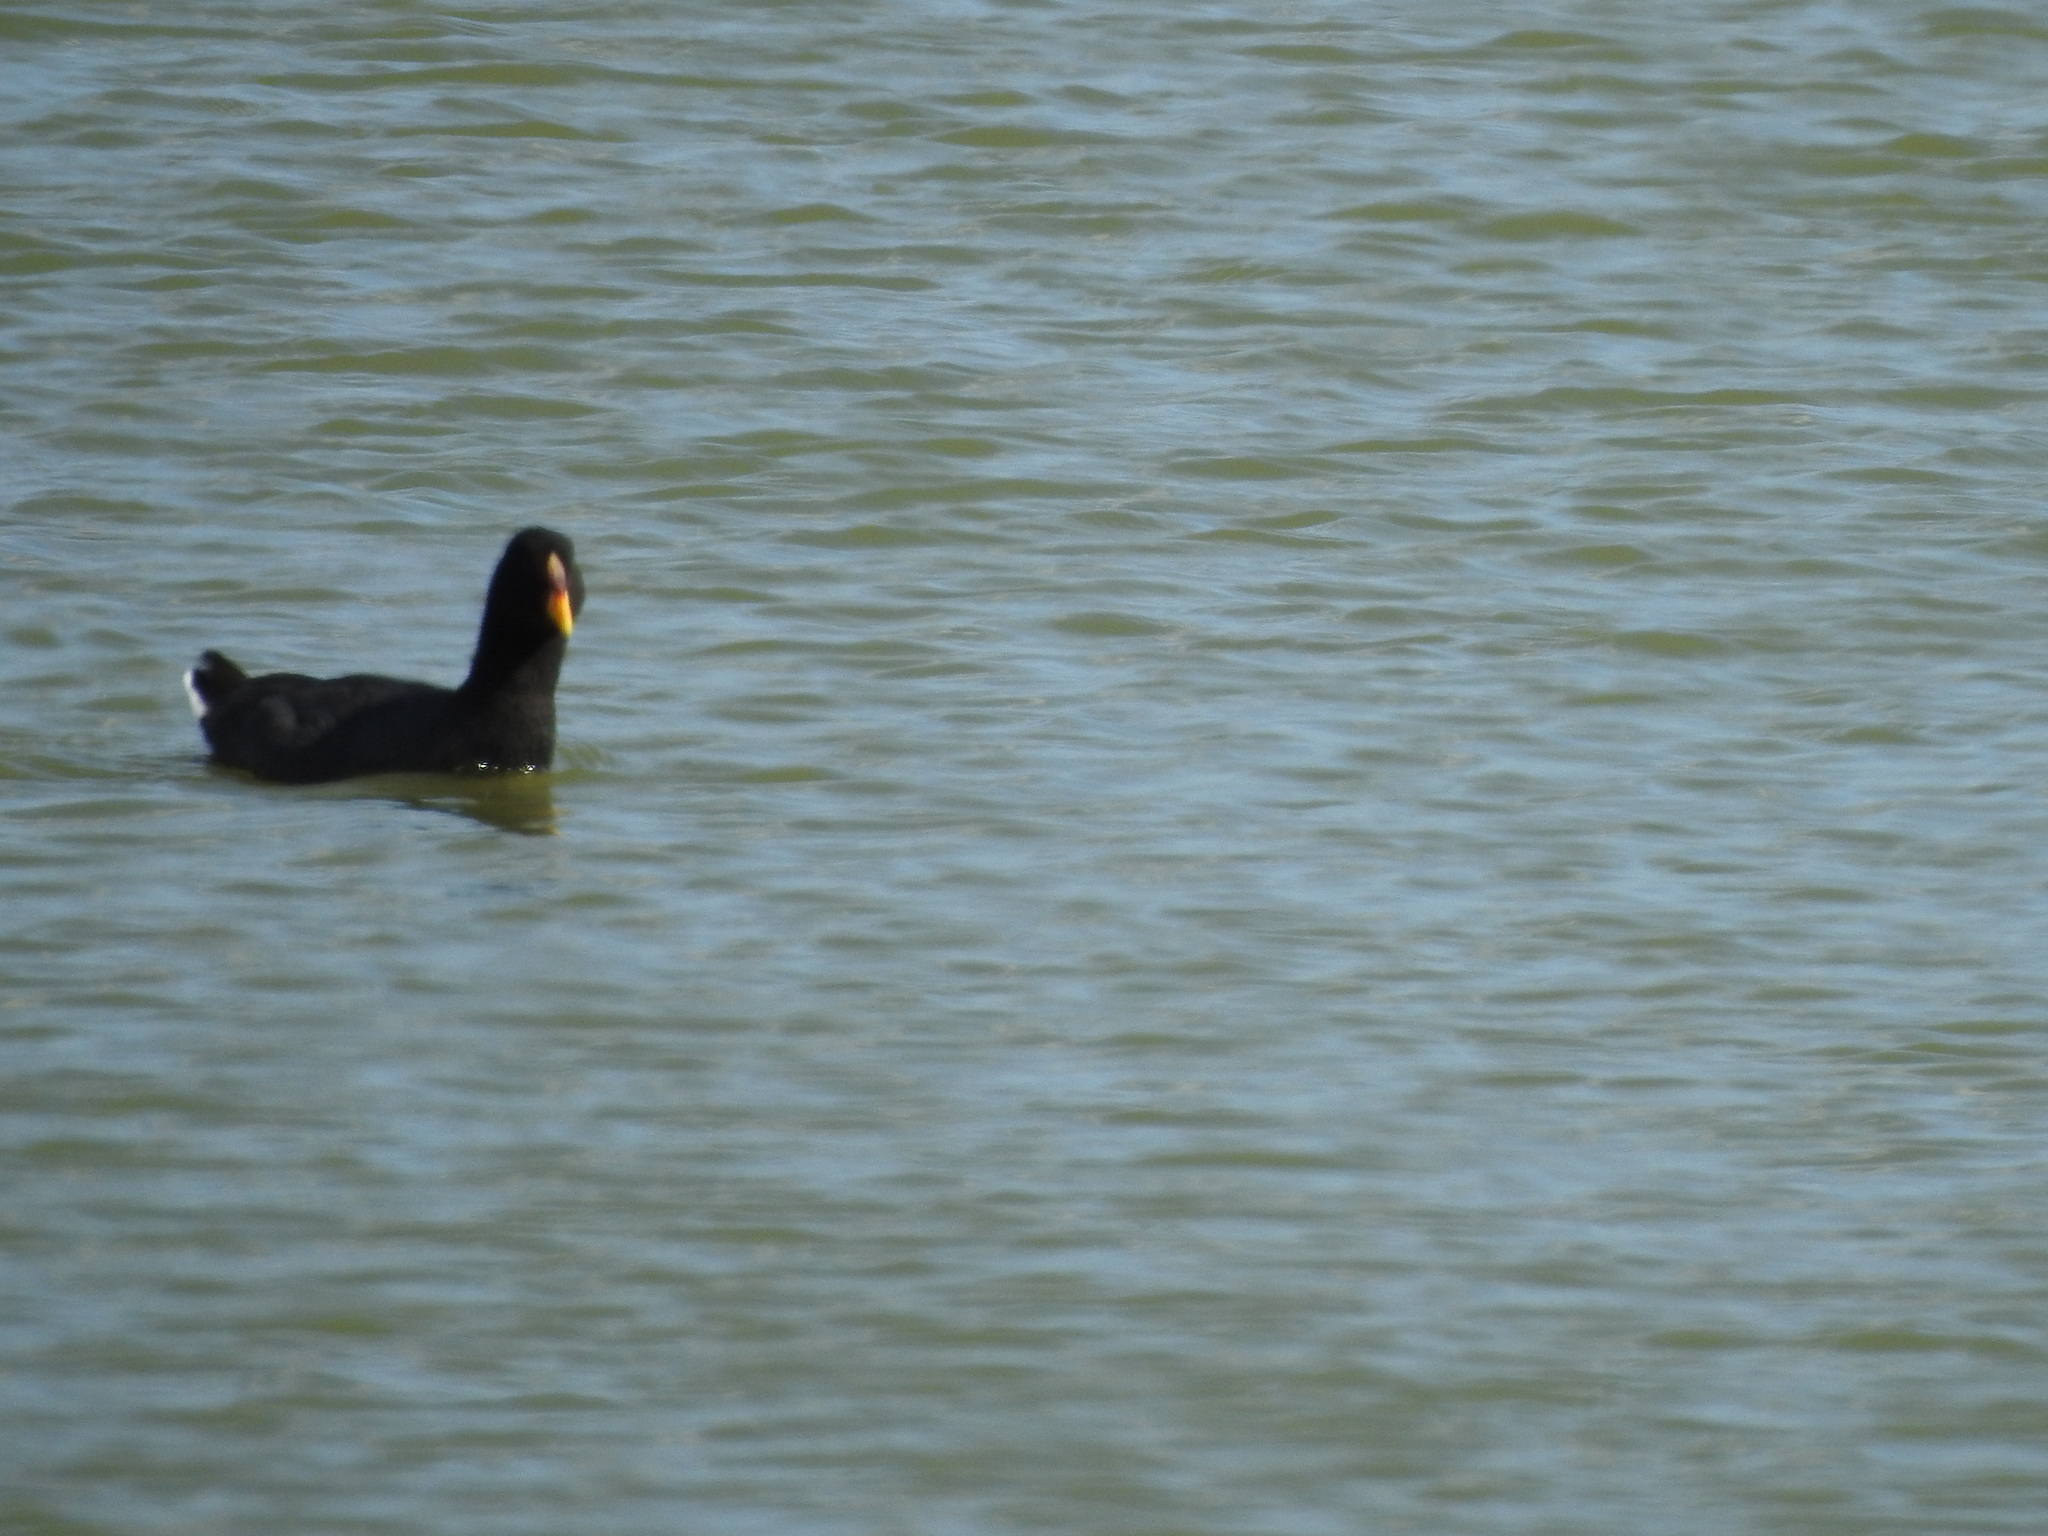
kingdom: Animalia
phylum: Chordata
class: Aves
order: Gruiformes
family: Rallidae
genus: Fulica
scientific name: Fulica rufifrons
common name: Red-fronted coot
